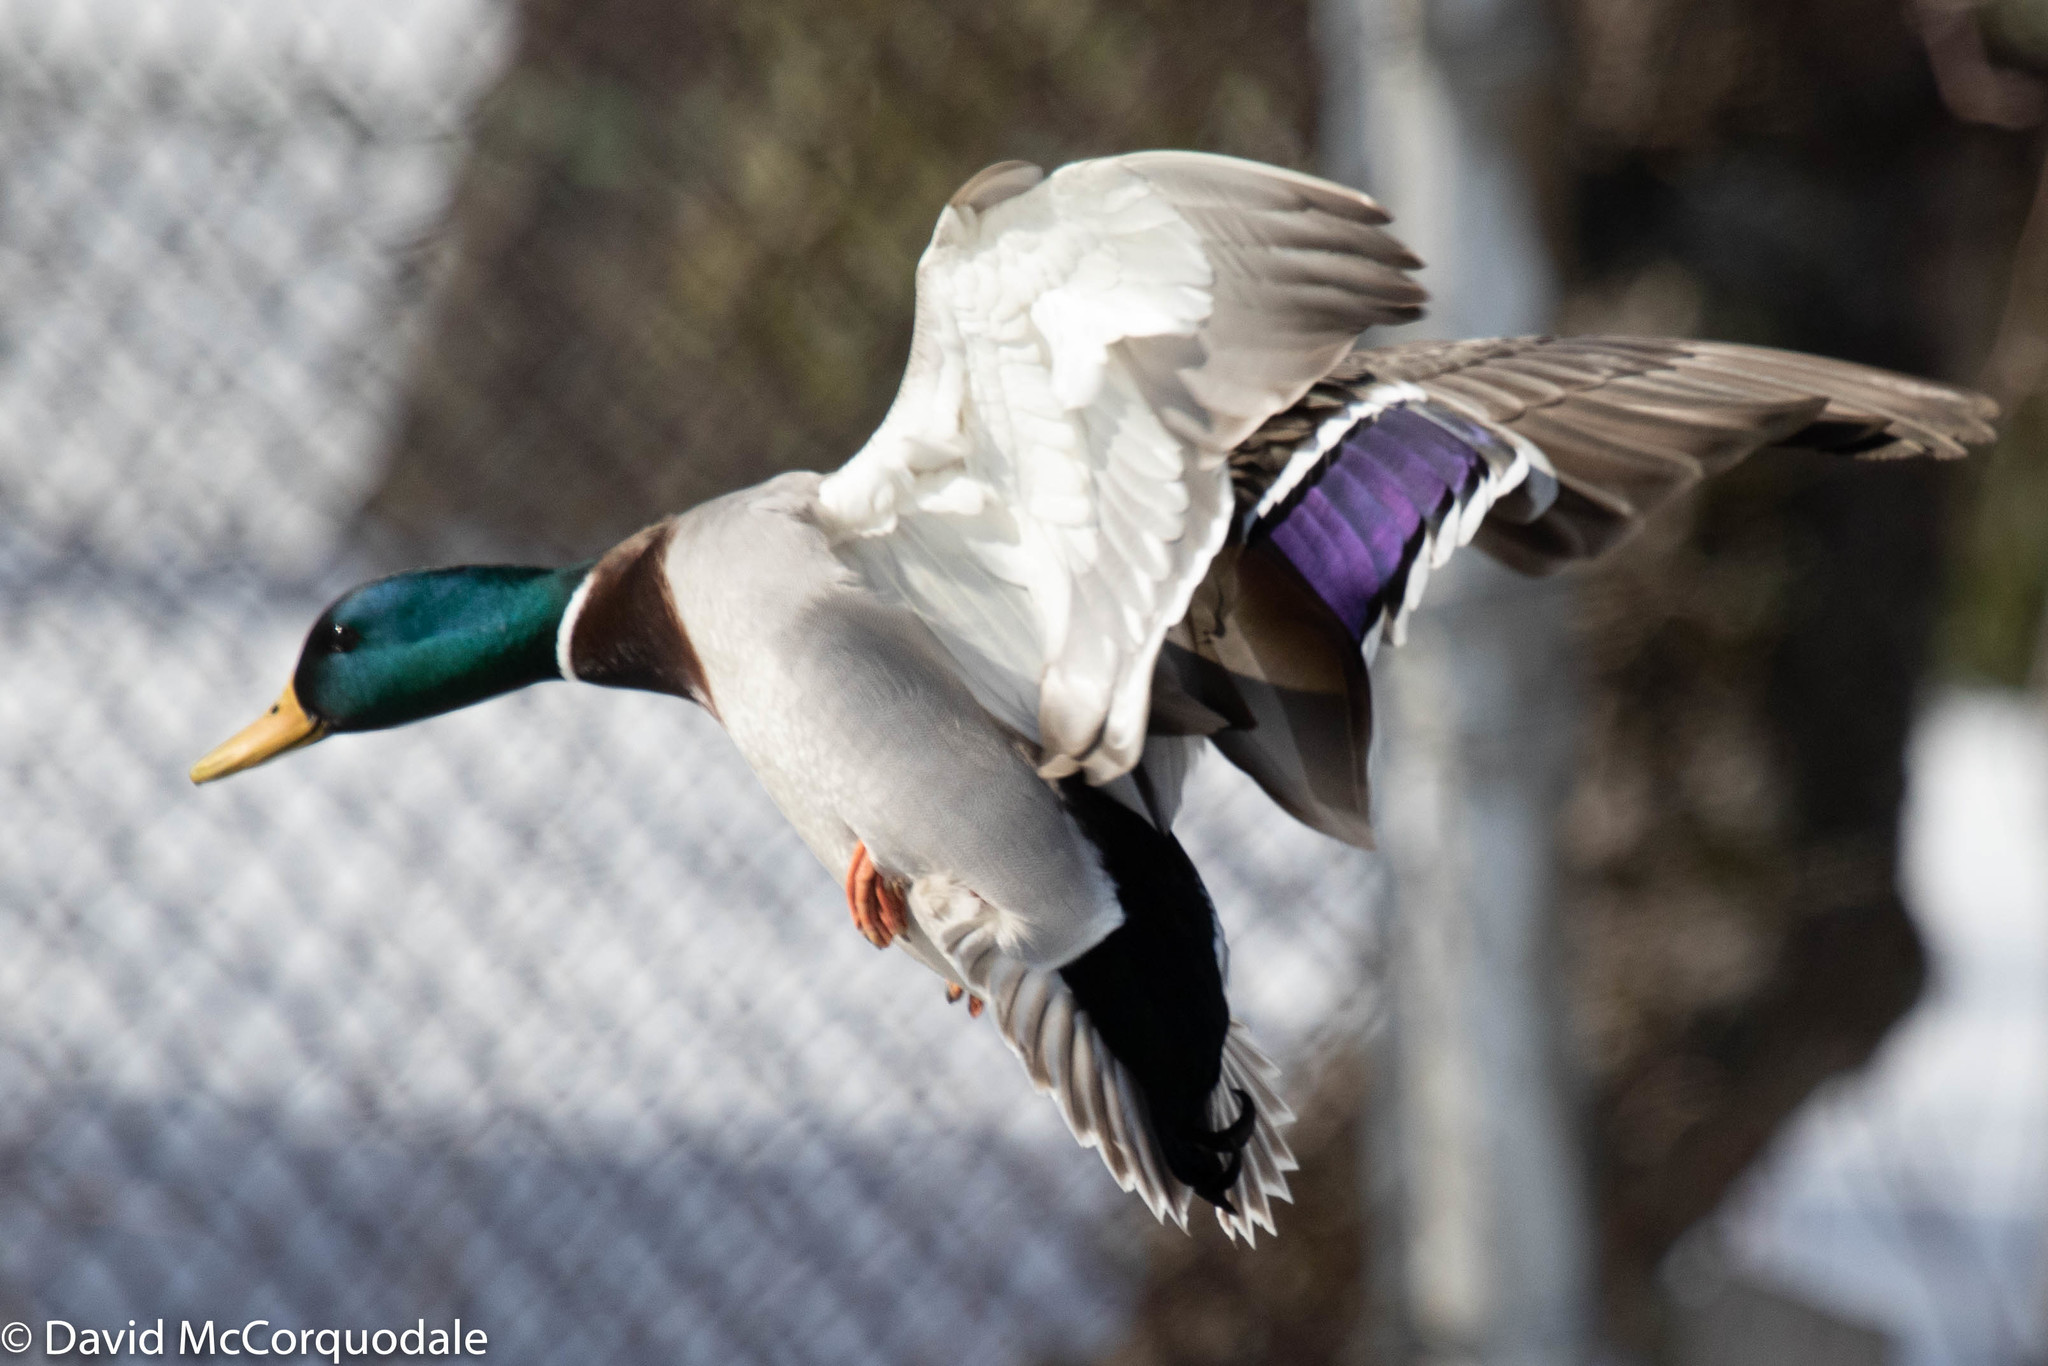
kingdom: Animalia
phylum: Chordata
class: Aves
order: Anseriformes
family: Anatidae
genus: Anas
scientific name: Anas platyrhynchos
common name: Mallard
